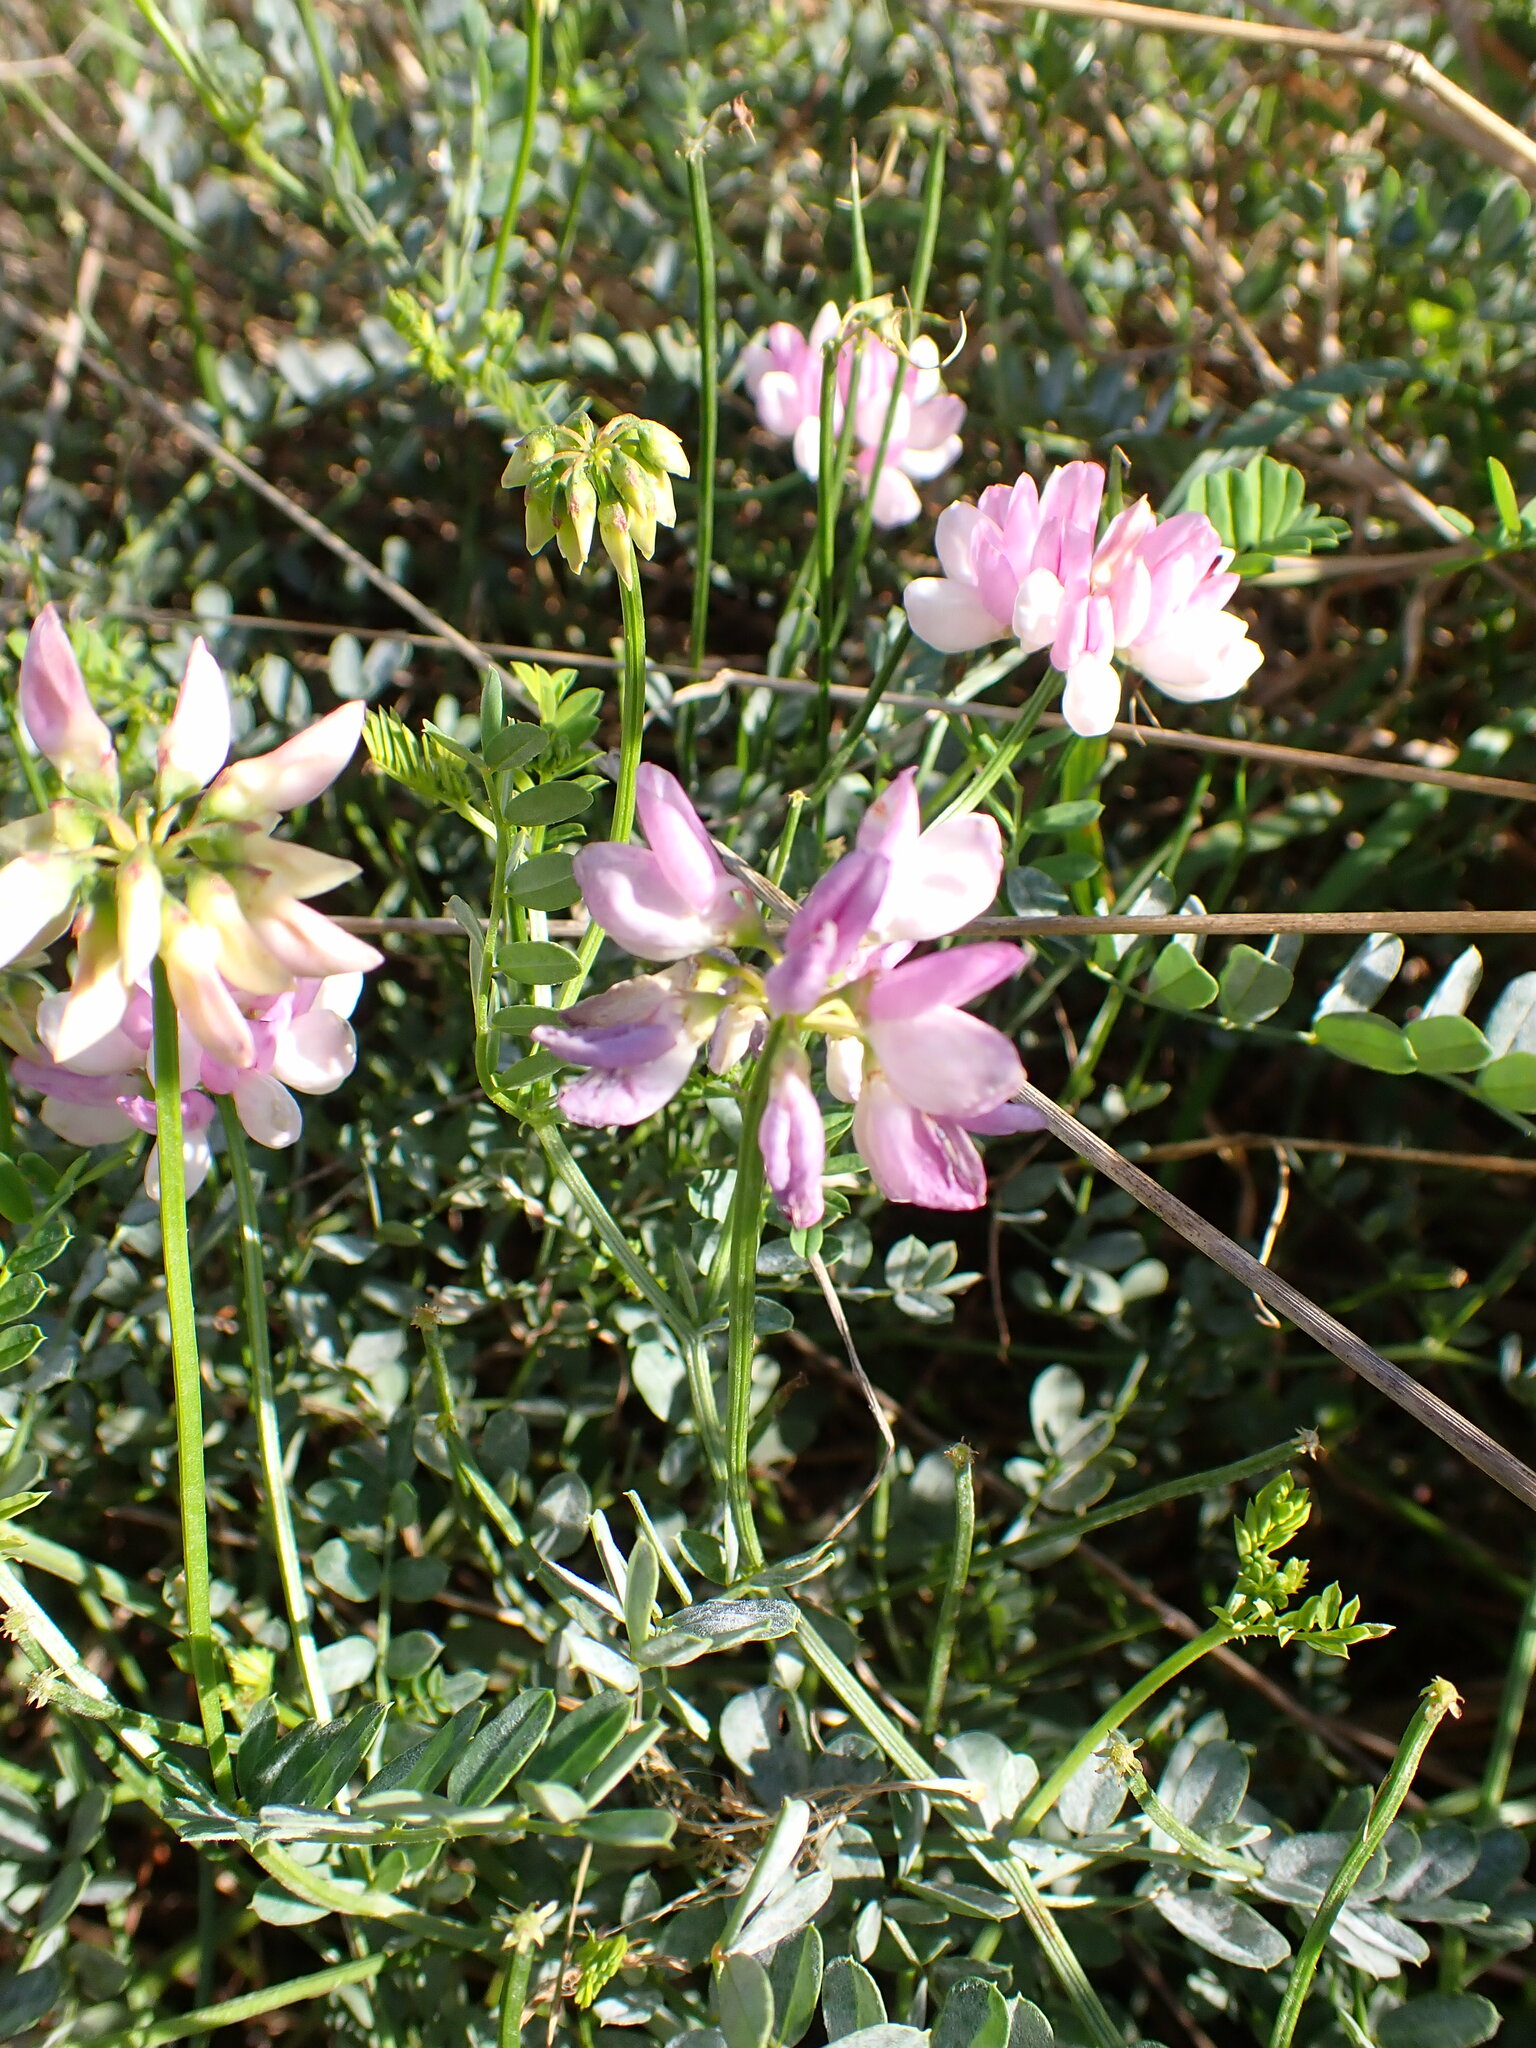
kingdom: Plantae
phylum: Tracheophyta
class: Magnoliopsida
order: Fabales
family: Fabaceae
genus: Coronilla
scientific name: Coronilla varia
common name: Crownvetch
